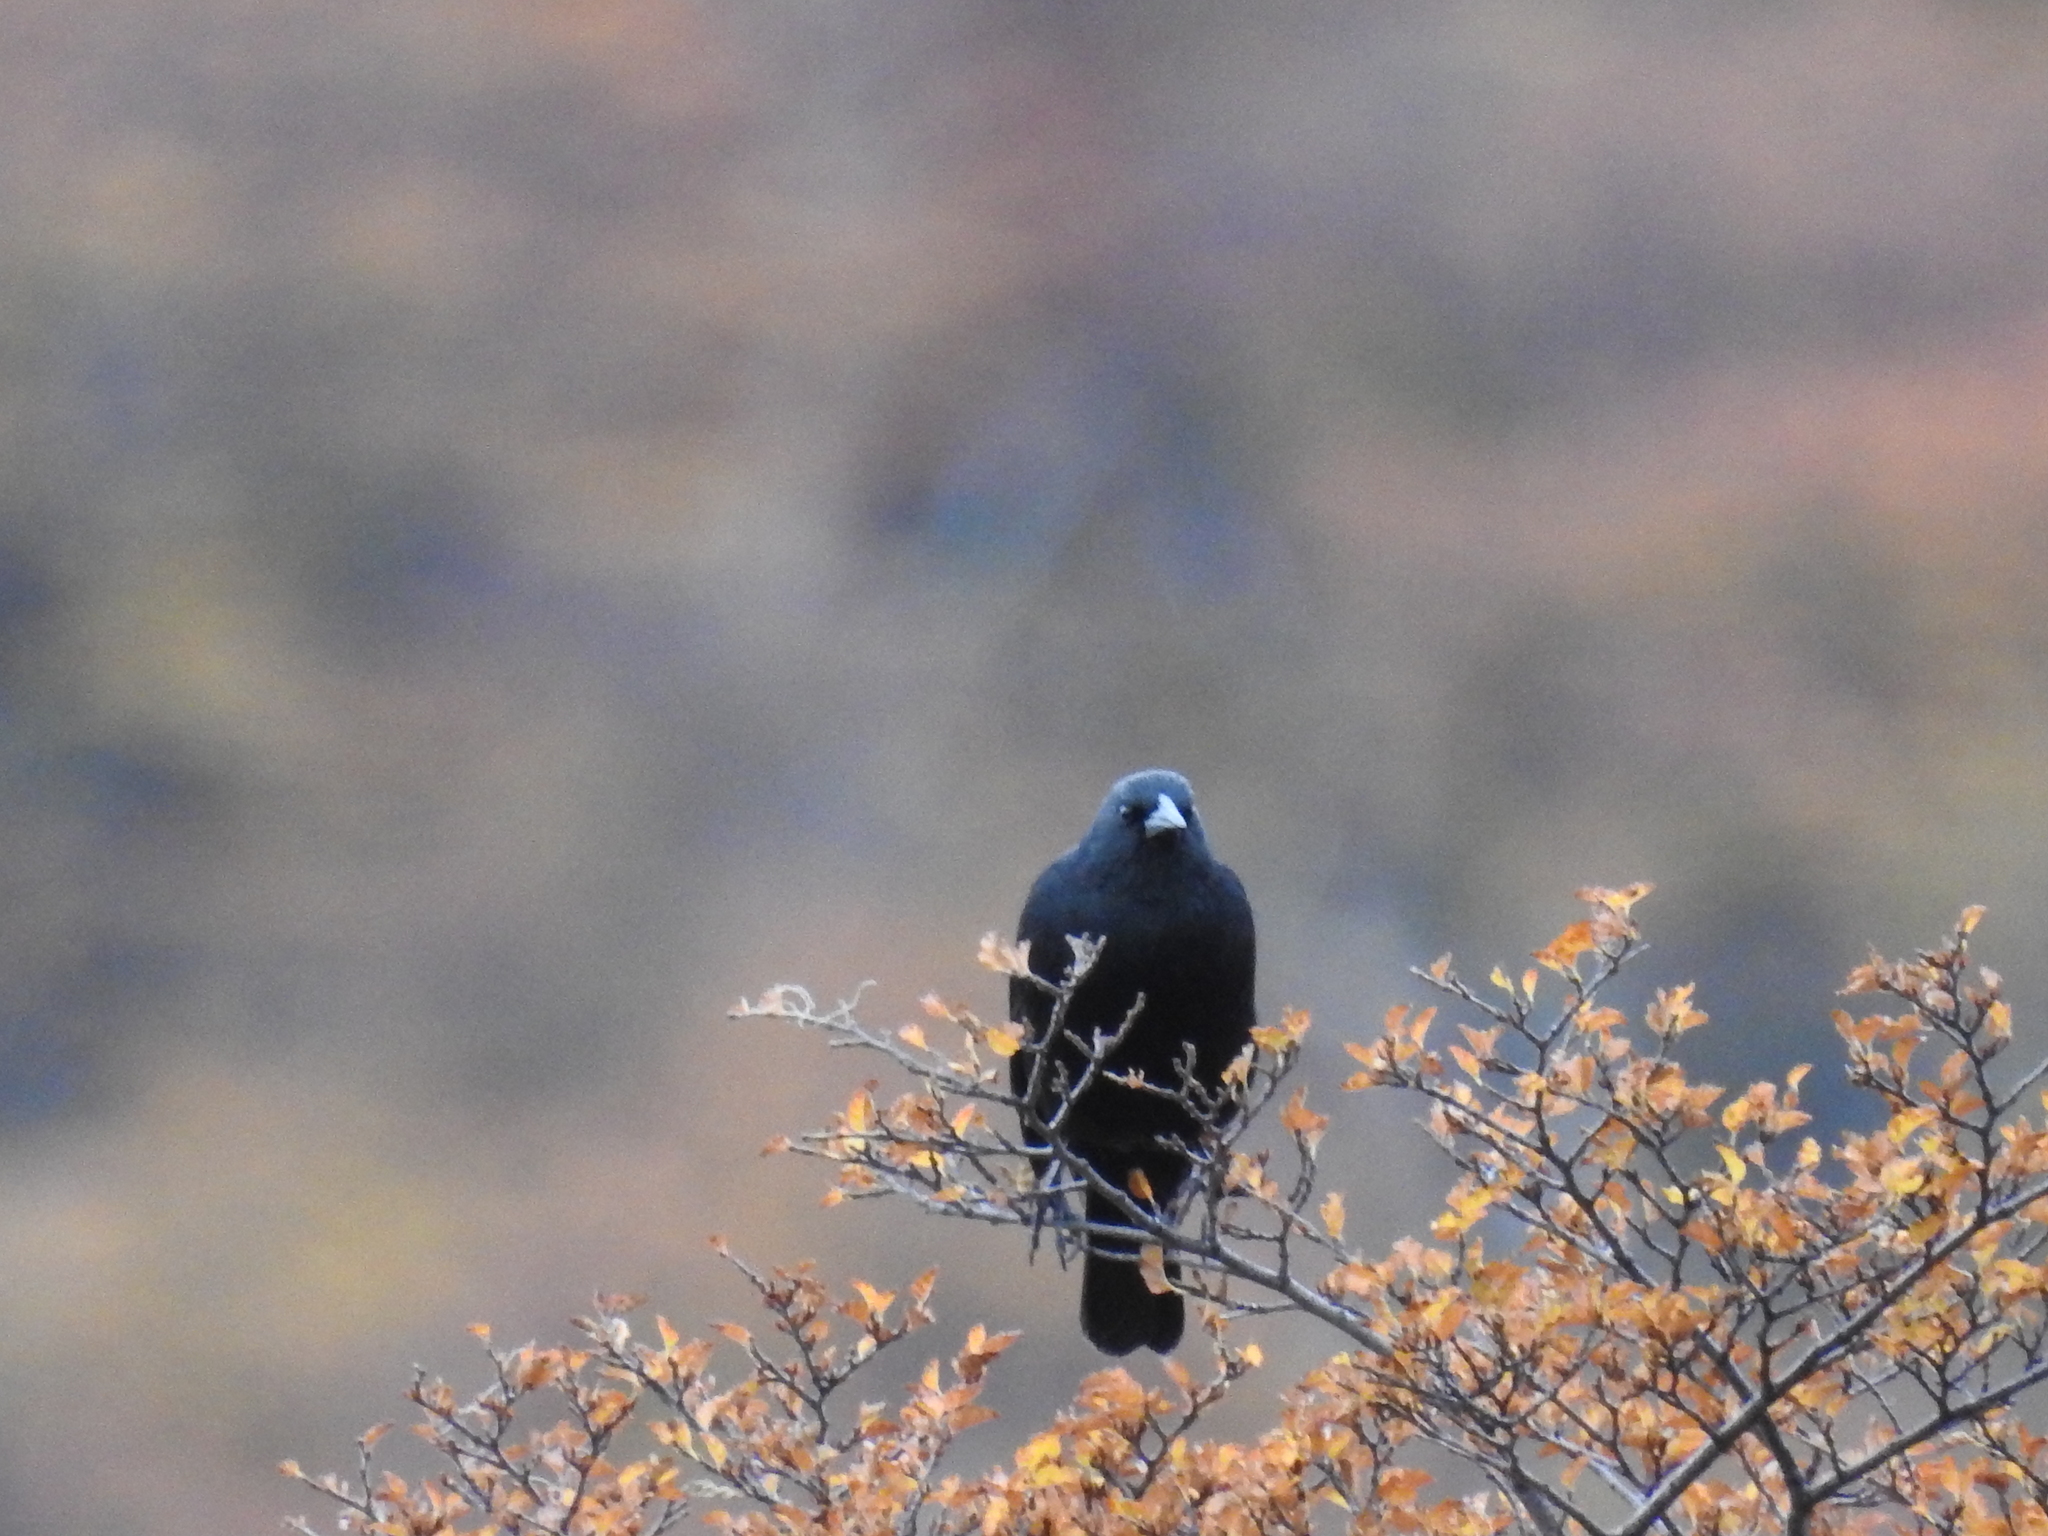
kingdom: Animalia
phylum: Chordata
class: Aves
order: Passeriformes
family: Icteridae
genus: Curaeus
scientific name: Curaeus curaeus
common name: Austral blackbird
